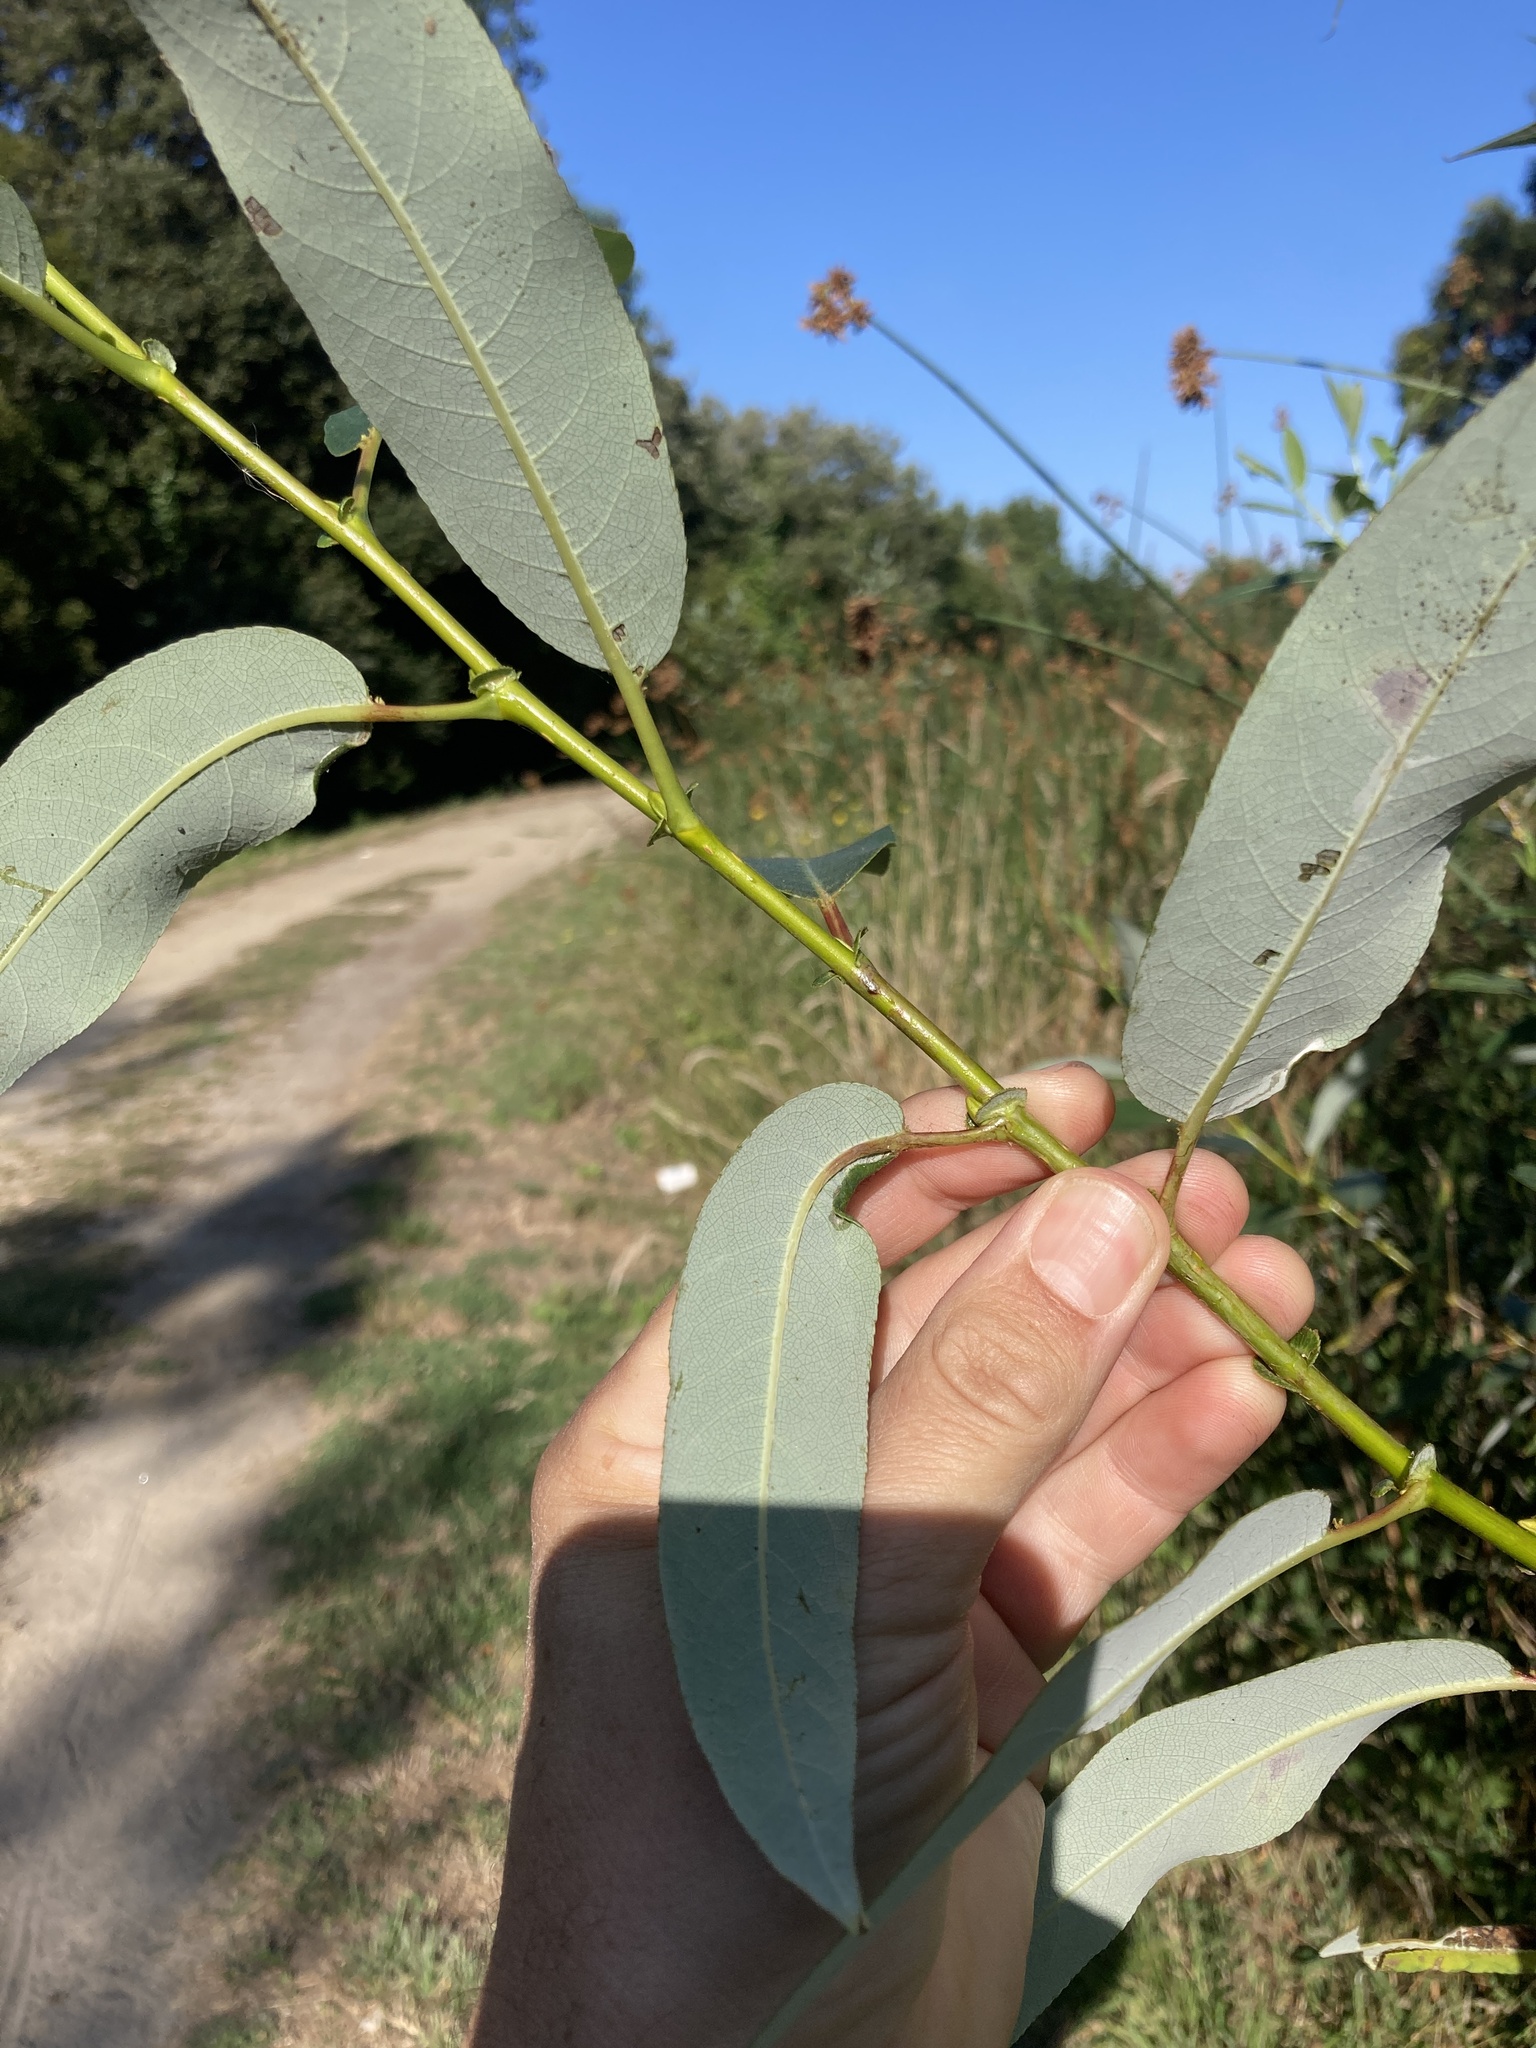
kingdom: Plantae
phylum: Tracheophyta
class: Magnoliopsida
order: Malpighiales
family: Salicaceae
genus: Salix
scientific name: Salix lucida
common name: Shining willow
